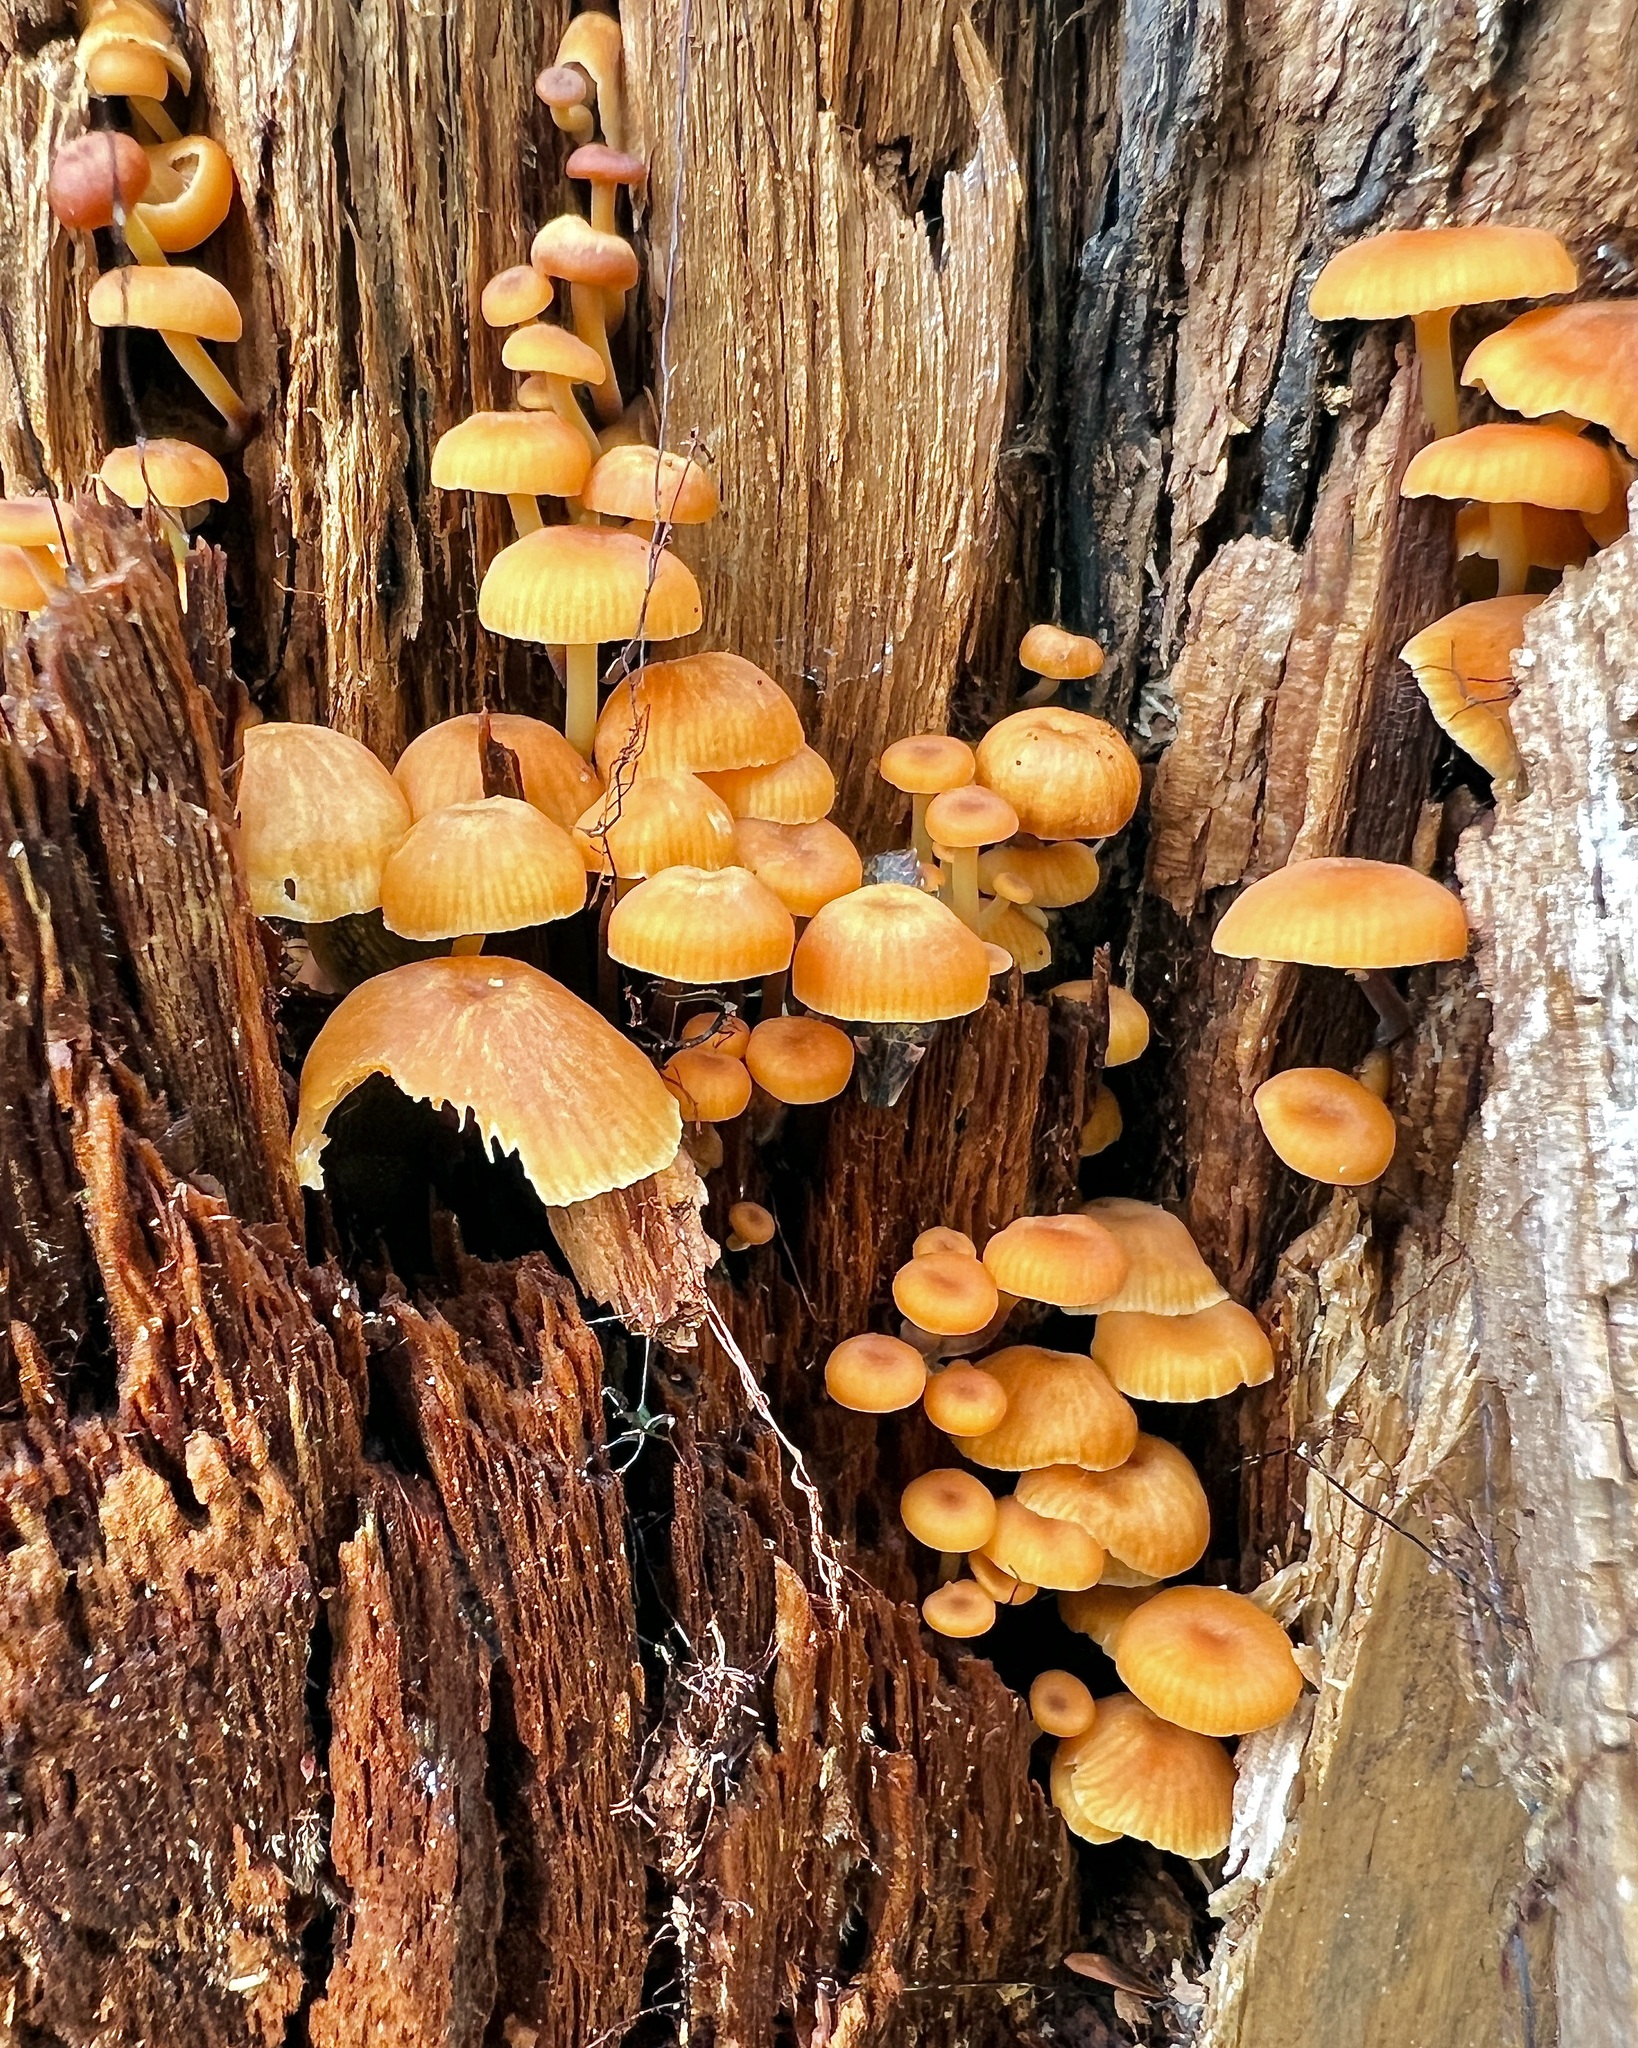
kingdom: Fungi
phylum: Basidiomycota
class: Agaricomycetes
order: Agaricales
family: Mycenaceae
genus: Xeromphalina
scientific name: Xeromphalina campanella
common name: Pinewood gingertail
